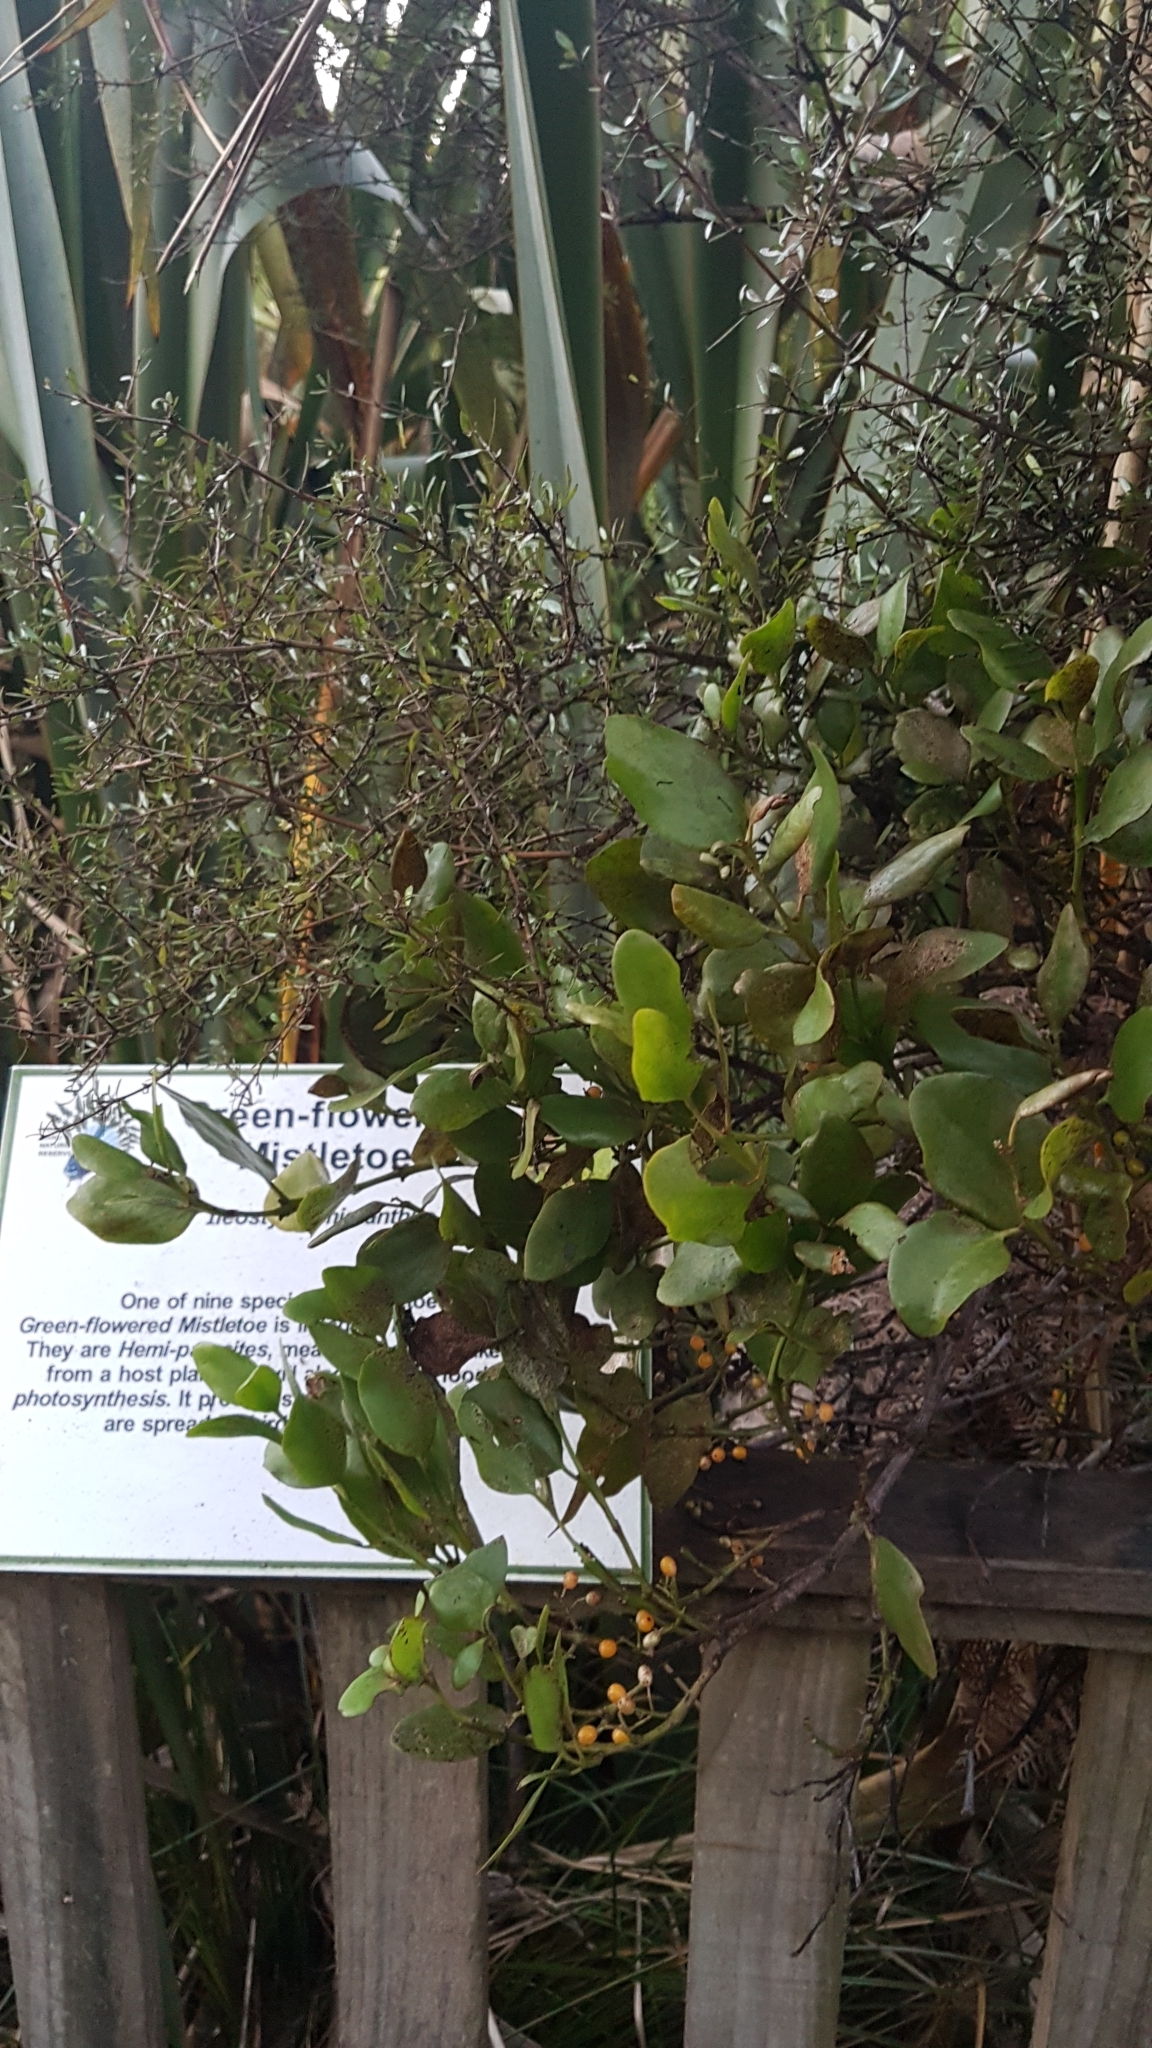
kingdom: Plantae
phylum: Tracheophyta
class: Magnoliopsida
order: Santalales
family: Loranthaceae
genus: Ileostylus
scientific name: Ileostylus micranthus
